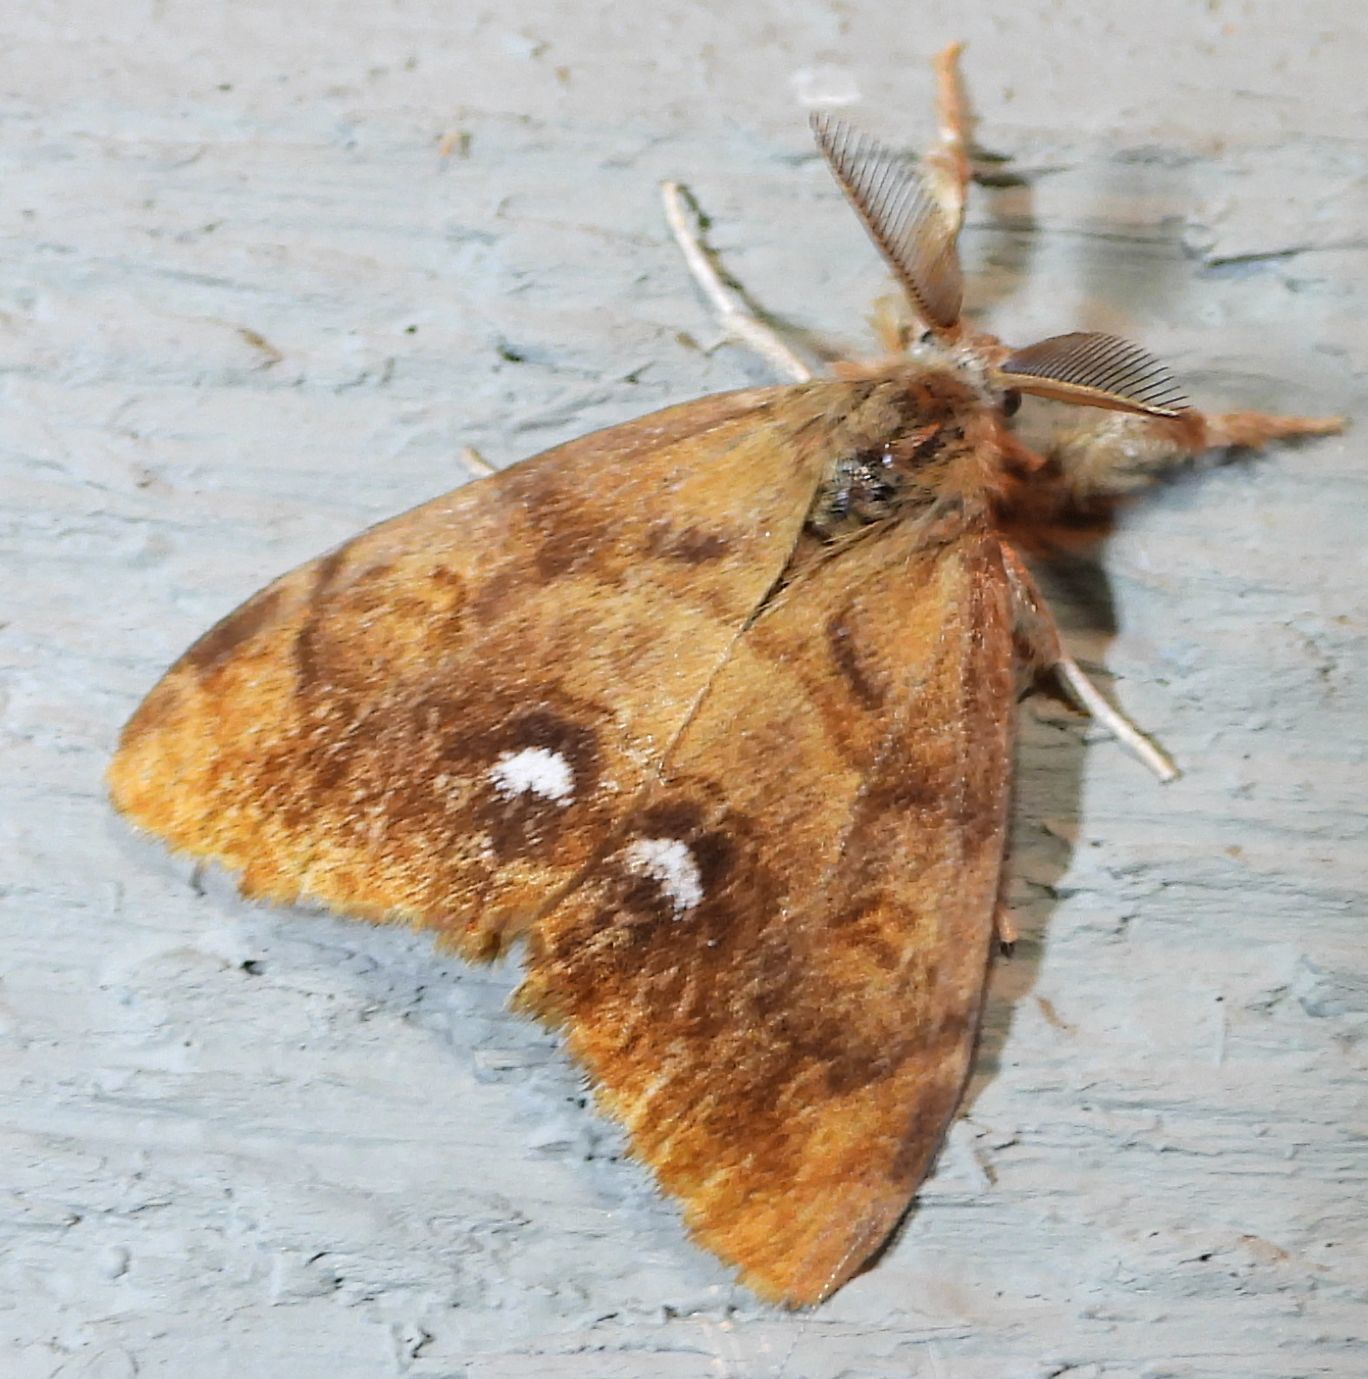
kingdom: Animalia
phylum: Arthropoda
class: Insecta
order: Lepidoptera
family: Erebidae
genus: Orgyia
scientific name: Orgyia antiqua
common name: Vapourer
